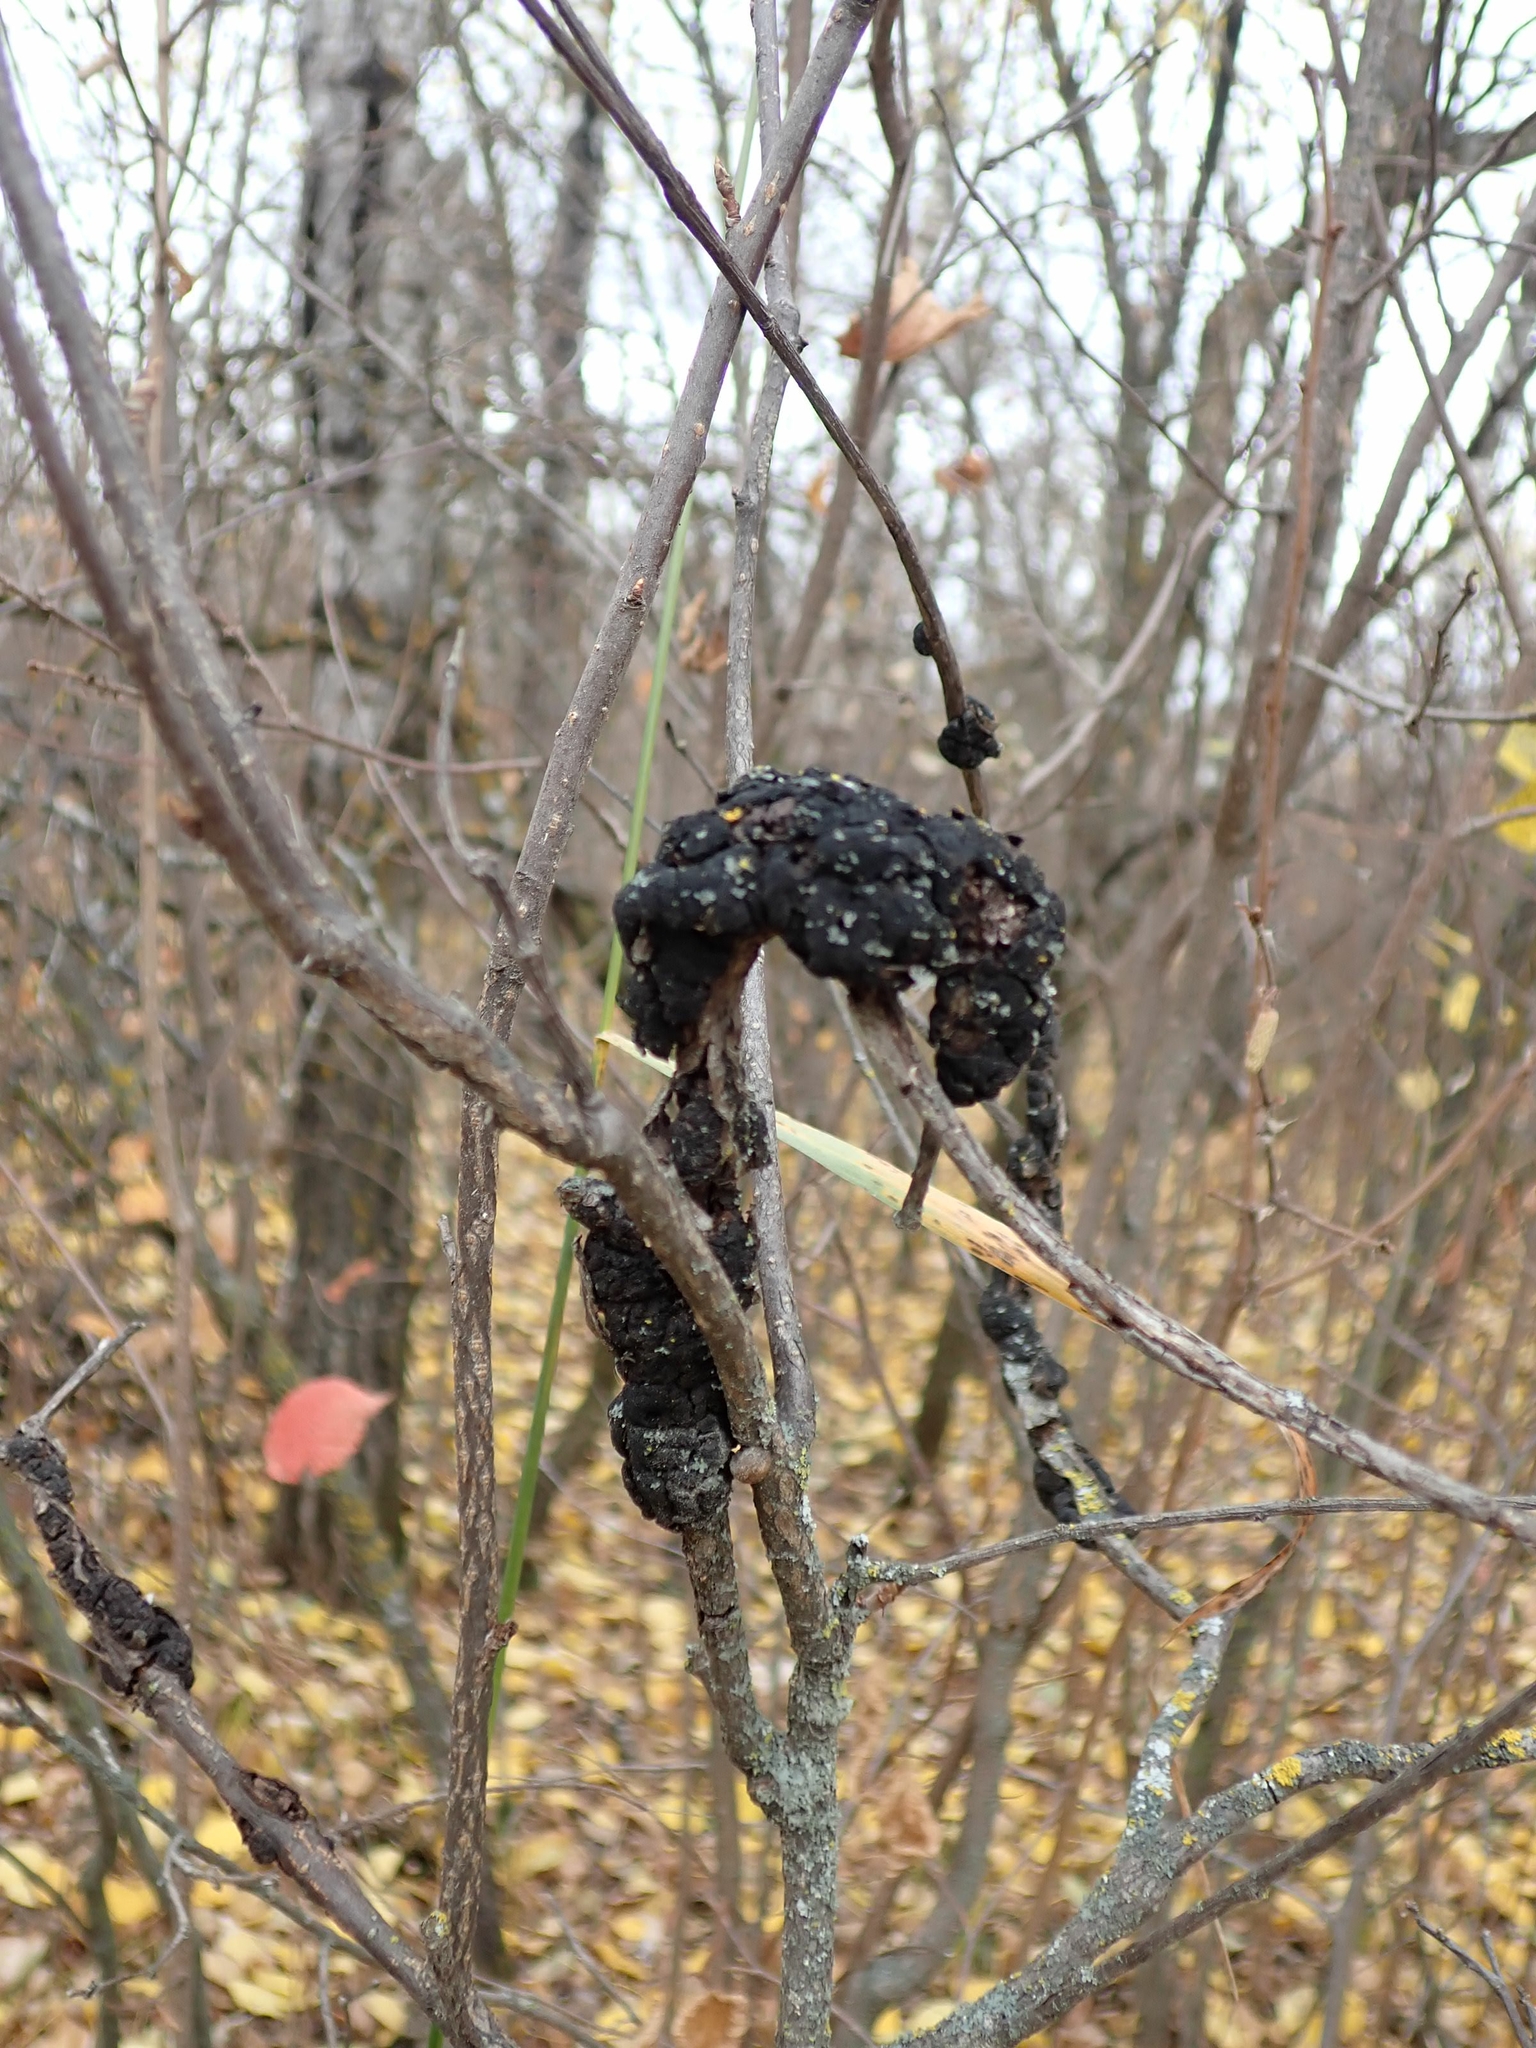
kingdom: Fungi
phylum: Ascomycota
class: Dothideomycetes
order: Venturiales
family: Venturiaceae
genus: Apiosporina
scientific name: Apiosporina morbosa
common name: Black knot
